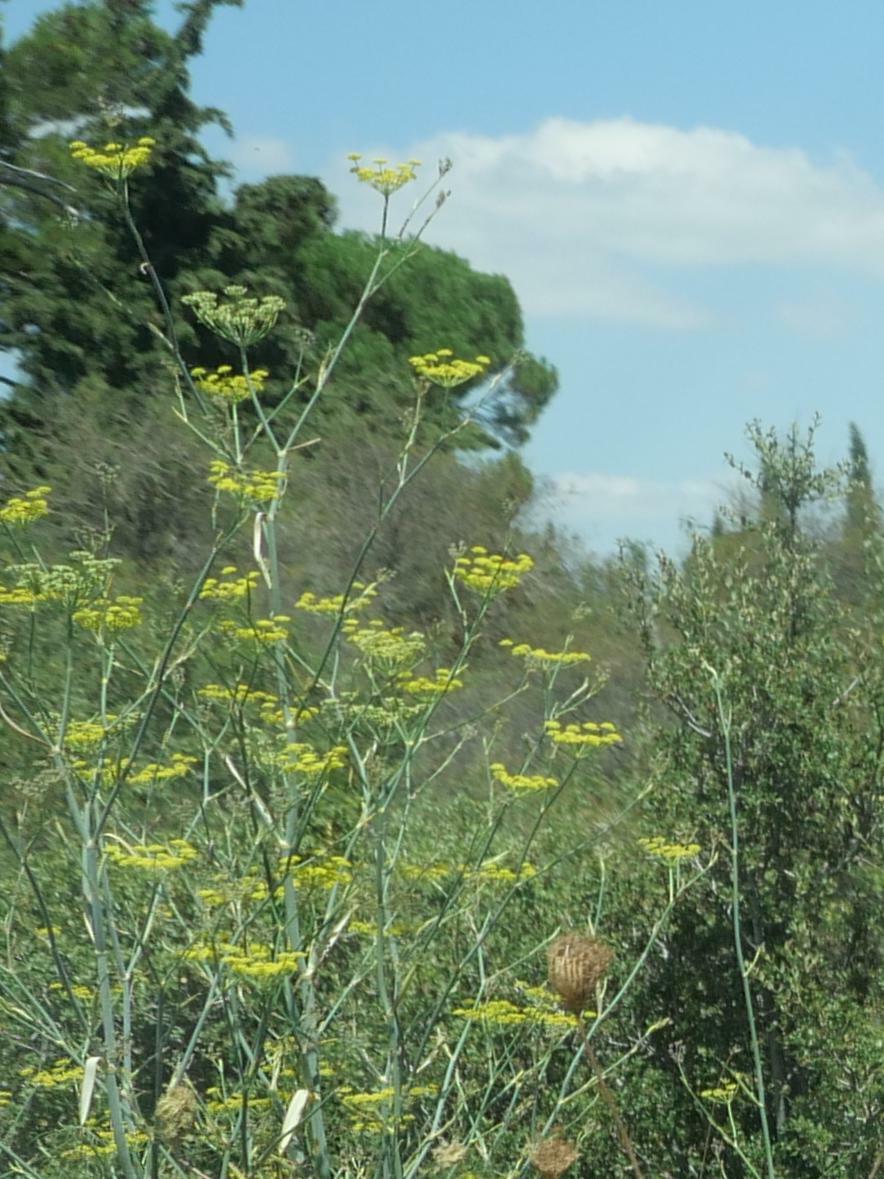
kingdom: Plantae
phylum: Tracheophyta
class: Magnoliopsida
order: Apiales
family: Apiaceae
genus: Foeniculum
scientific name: Foeniculum vulgare
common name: Fennel
